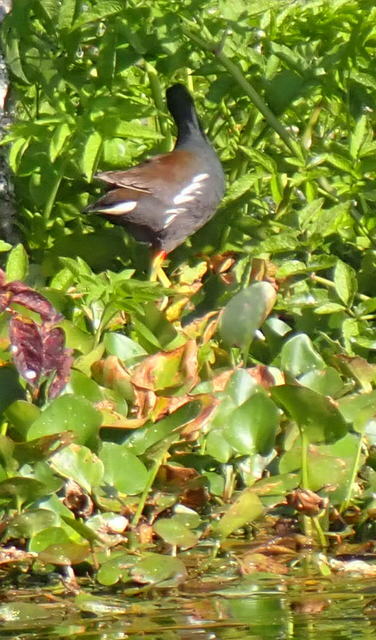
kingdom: Animalia
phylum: Chordata
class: Aves
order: Gruiformes
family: Rallidae
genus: Gallinula
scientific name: Gallinula chloropus
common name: Common moorhen
